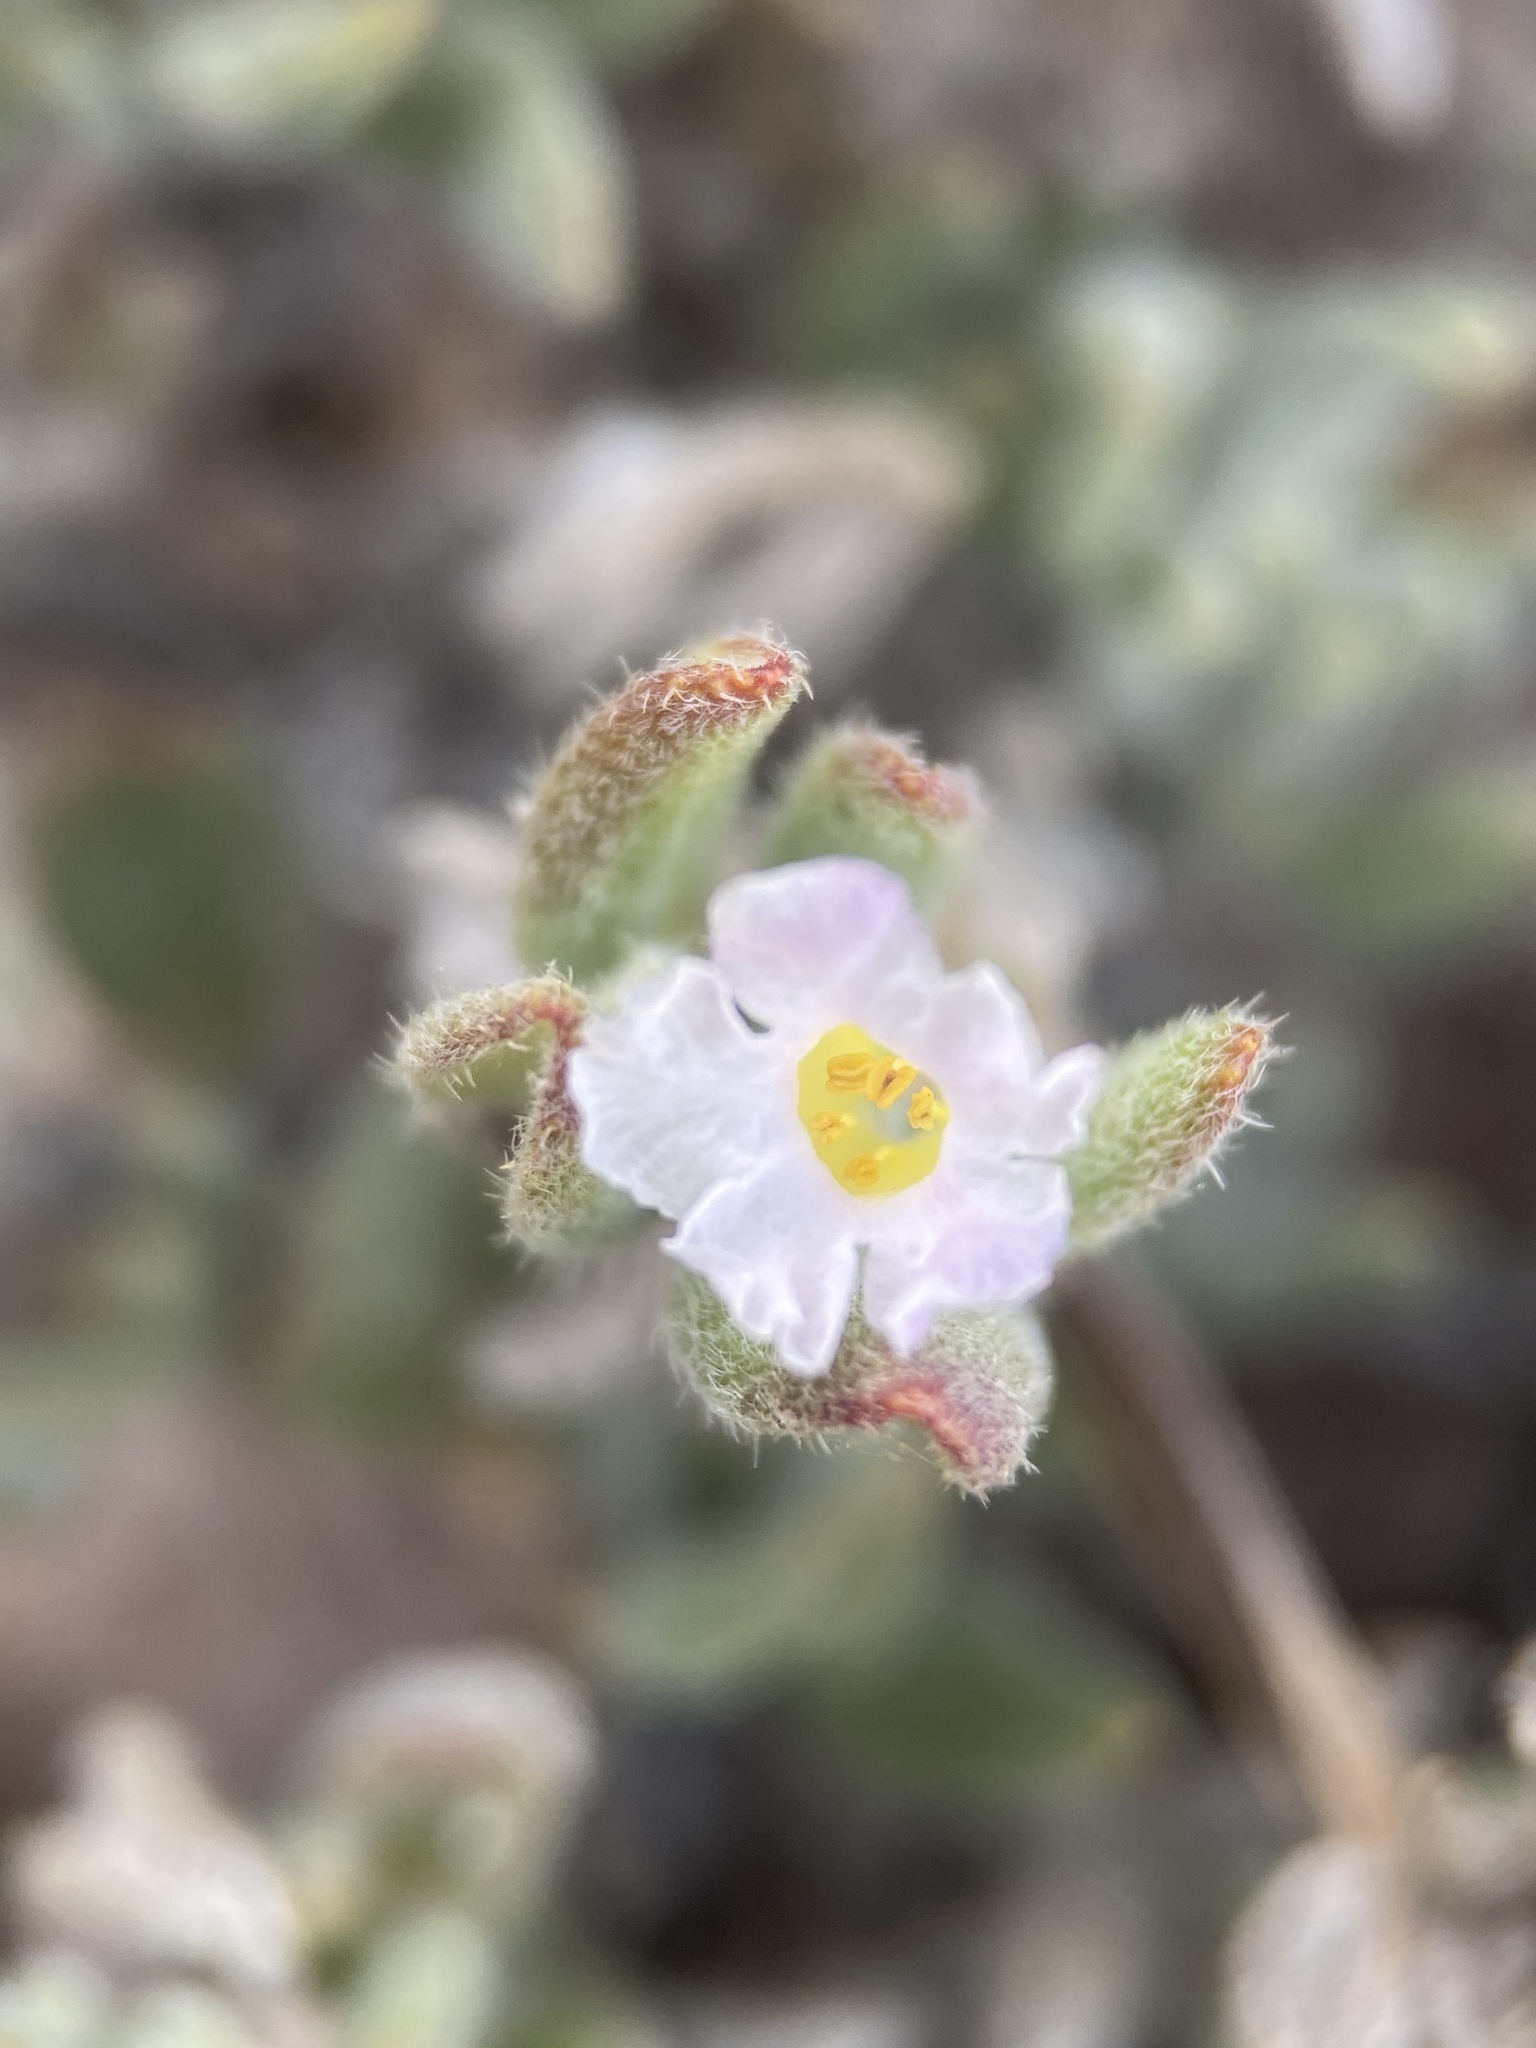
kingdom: Plantae
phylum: Tracheophyta
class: Magnoliopsida
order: Boraginales
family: Ehretiaceae
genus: Tiquilia
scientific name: Tiquilia canescens
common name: Hairy tiquilia
